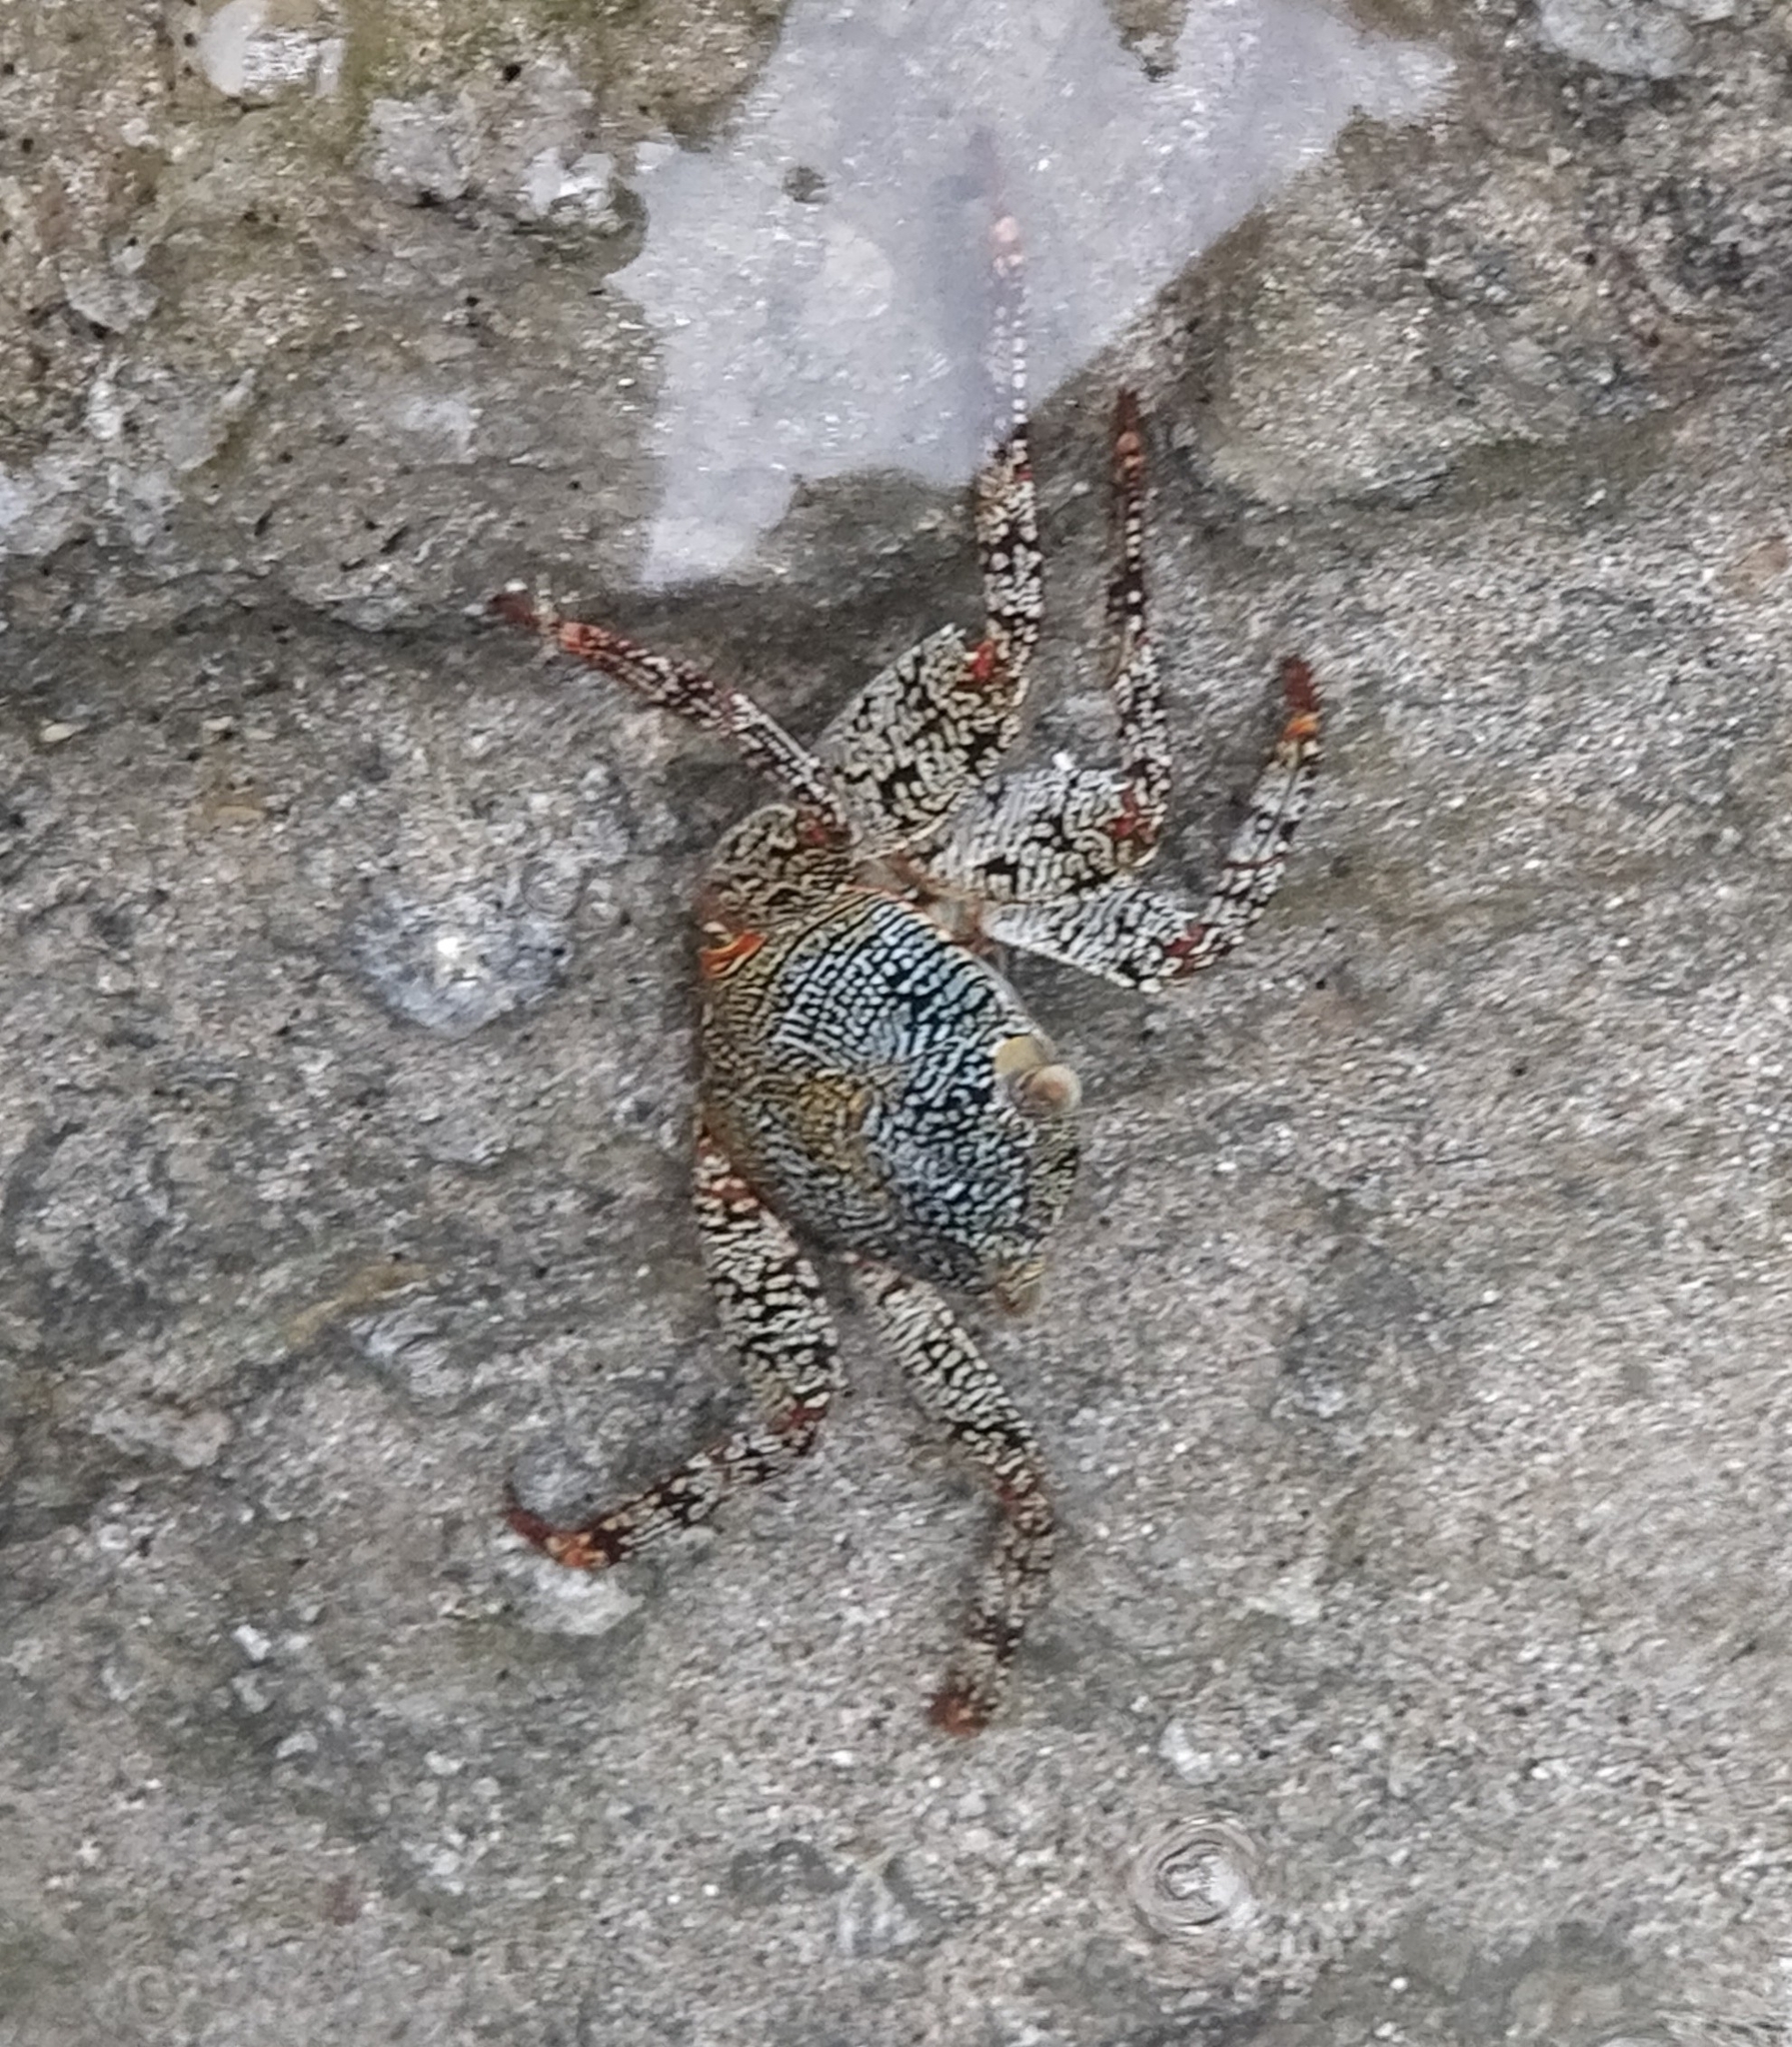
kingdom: Animalia
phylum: Arthropoda
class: Malacostraca
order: Decapoda
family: Grapsidae
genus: Grapsus
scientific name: Grapsus grapsus
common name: Sally lightfoot
